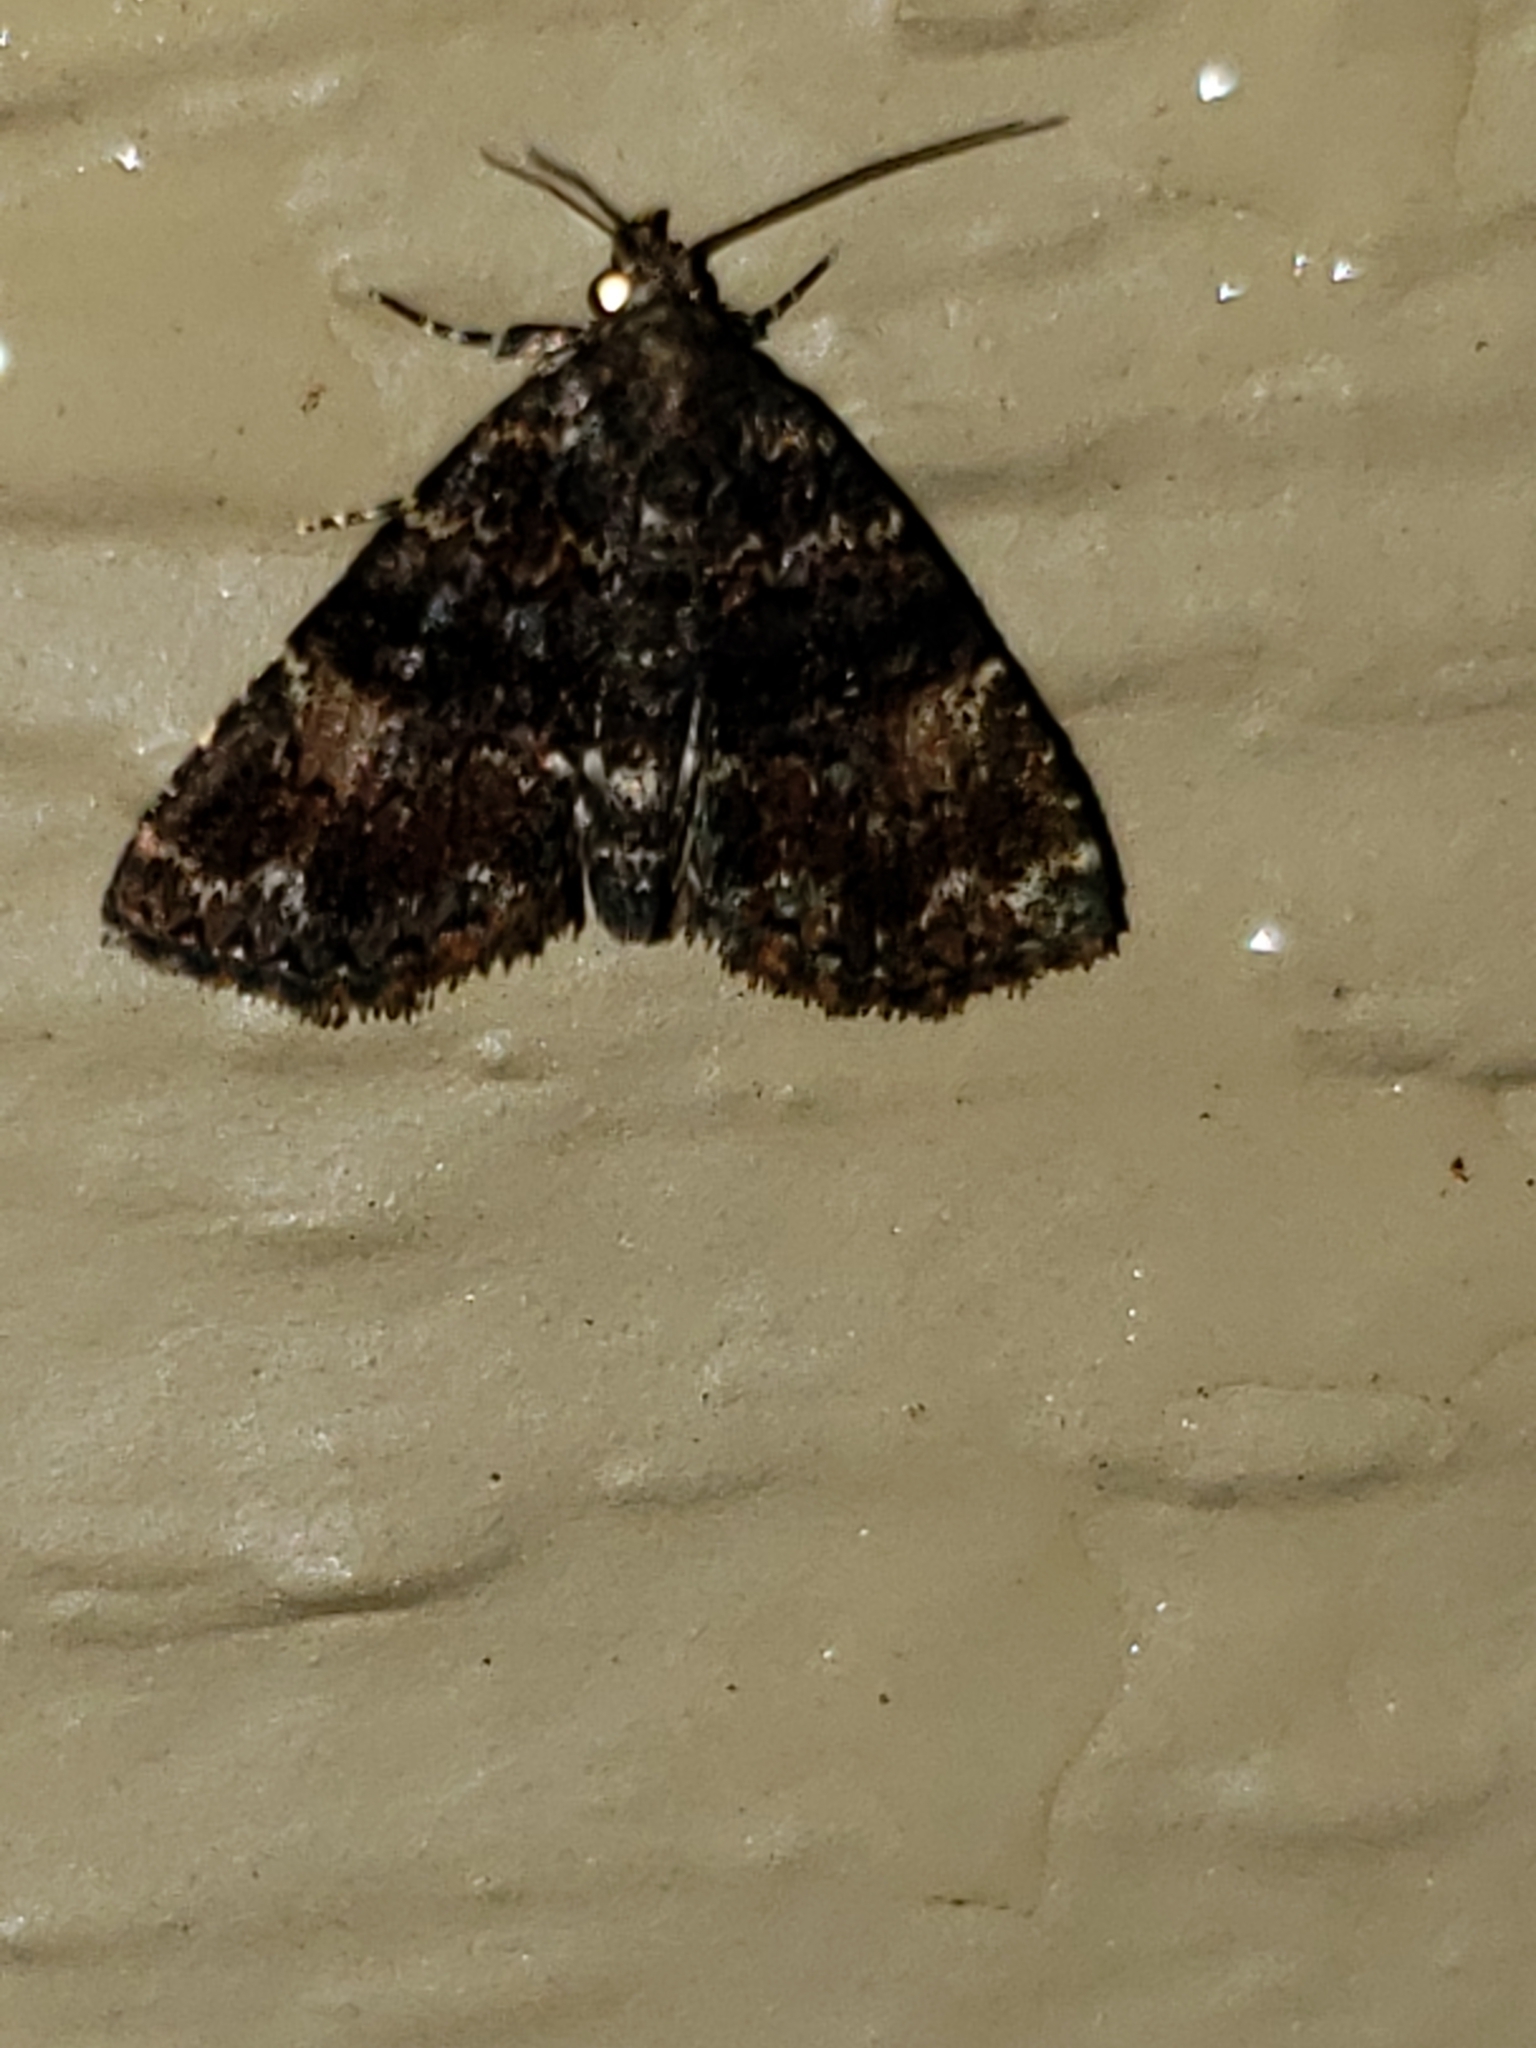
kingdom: Animalia
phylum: Arthropoda
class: Insecta
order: Lepidoptera
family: Erebidae
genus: Metalectra
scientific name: Metalectra richardsi
